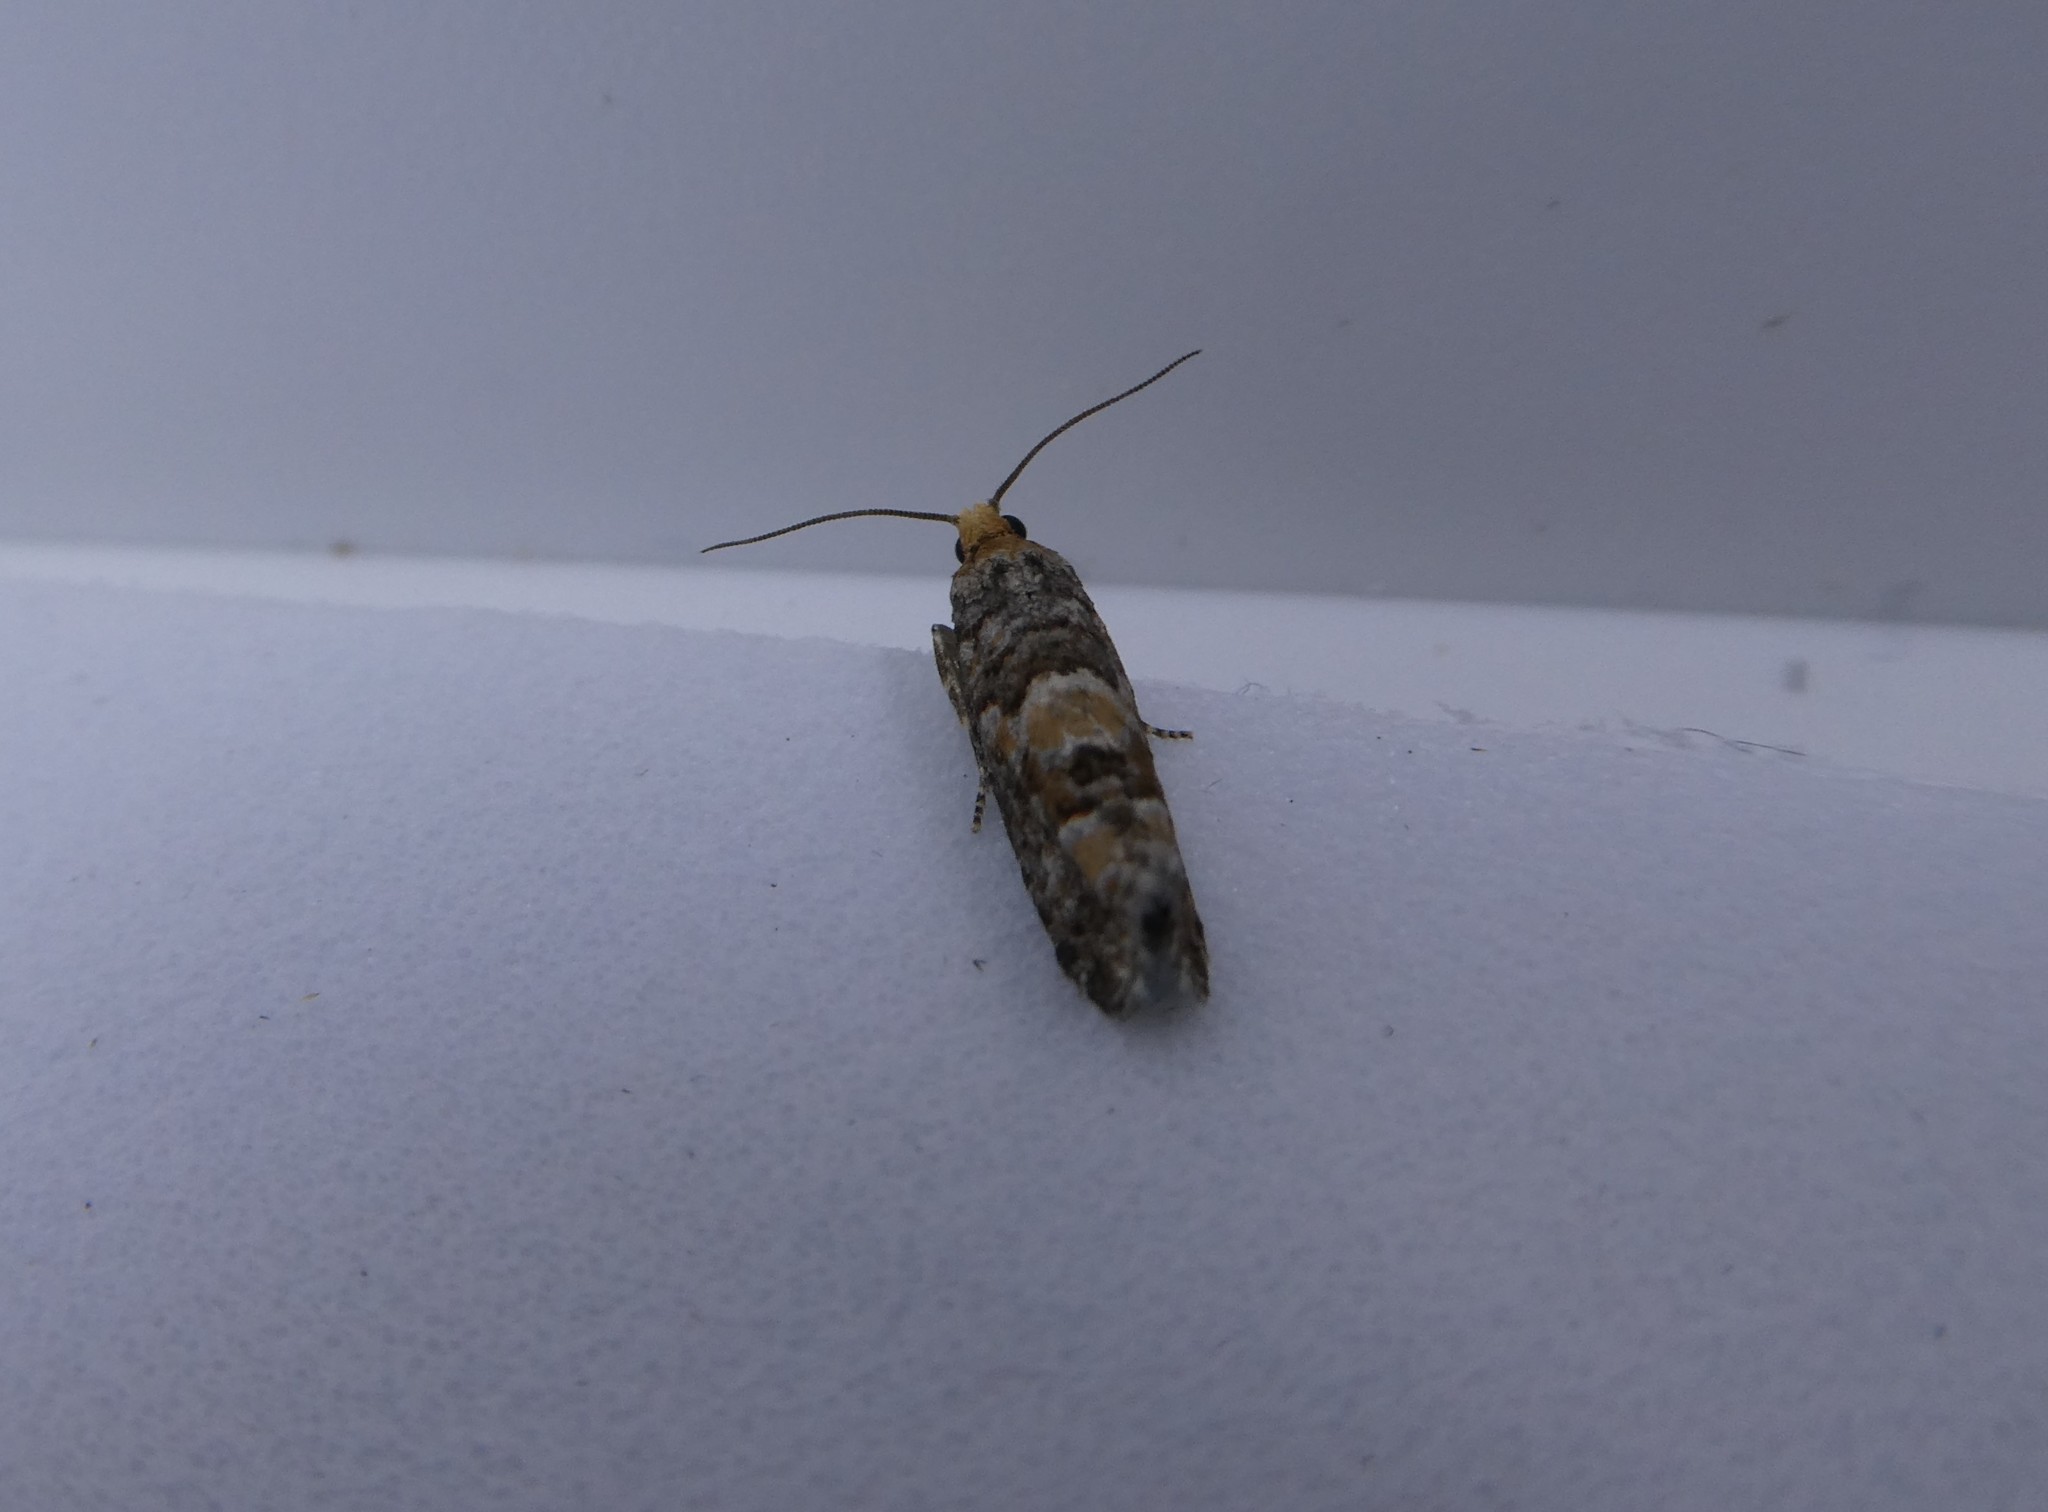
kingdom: Animalia
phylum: Arthropoda
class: Insecta
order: Lepidoptera
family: Tortricidae
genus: Eucopina
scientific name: Eucopina tocullionana
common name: White pinecone borer moth
